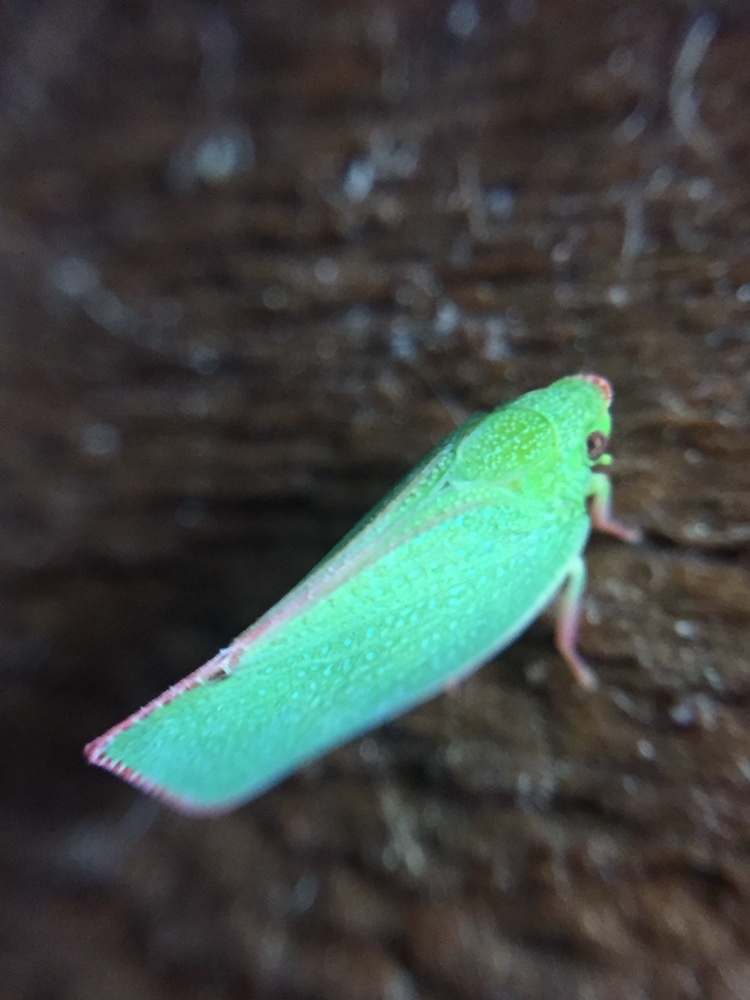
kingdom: Animalia
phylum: Arthropoda
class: Insecta
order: Hemiptera
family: Flatidae
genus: Siphanta
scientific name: Siphanta acuta
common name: Torpedo bug
